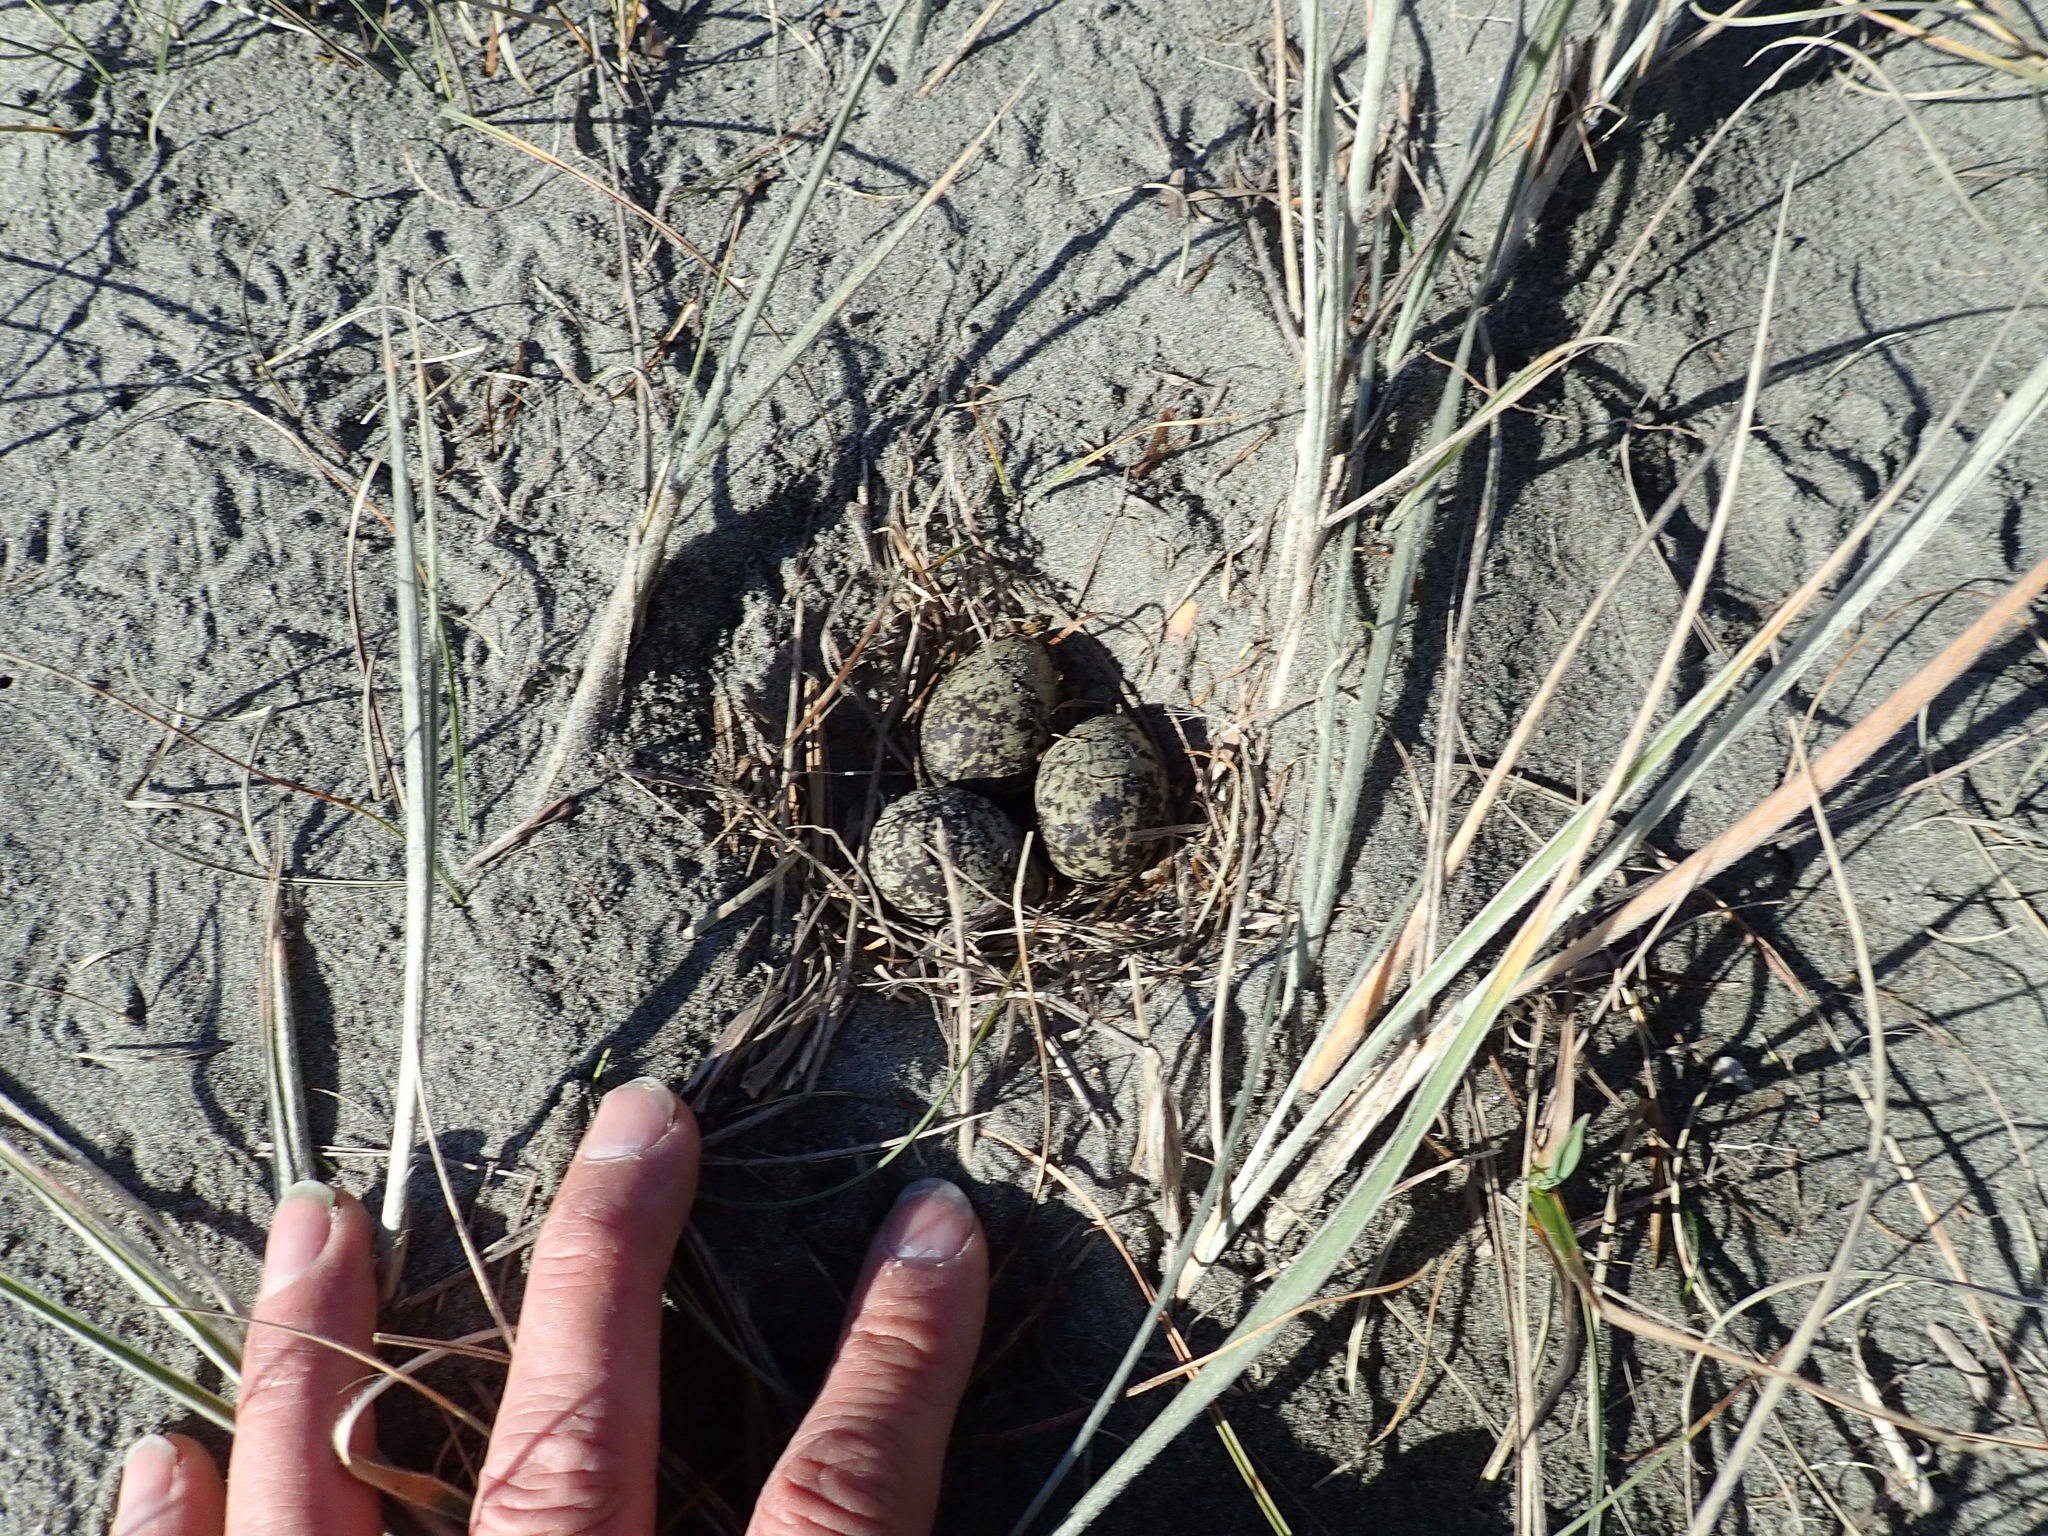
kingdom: Animalia
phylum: Chordata
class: Aves
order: Charadriiformes
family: Charadriidae
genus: Anarhynchus
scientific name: Anarhynchus
